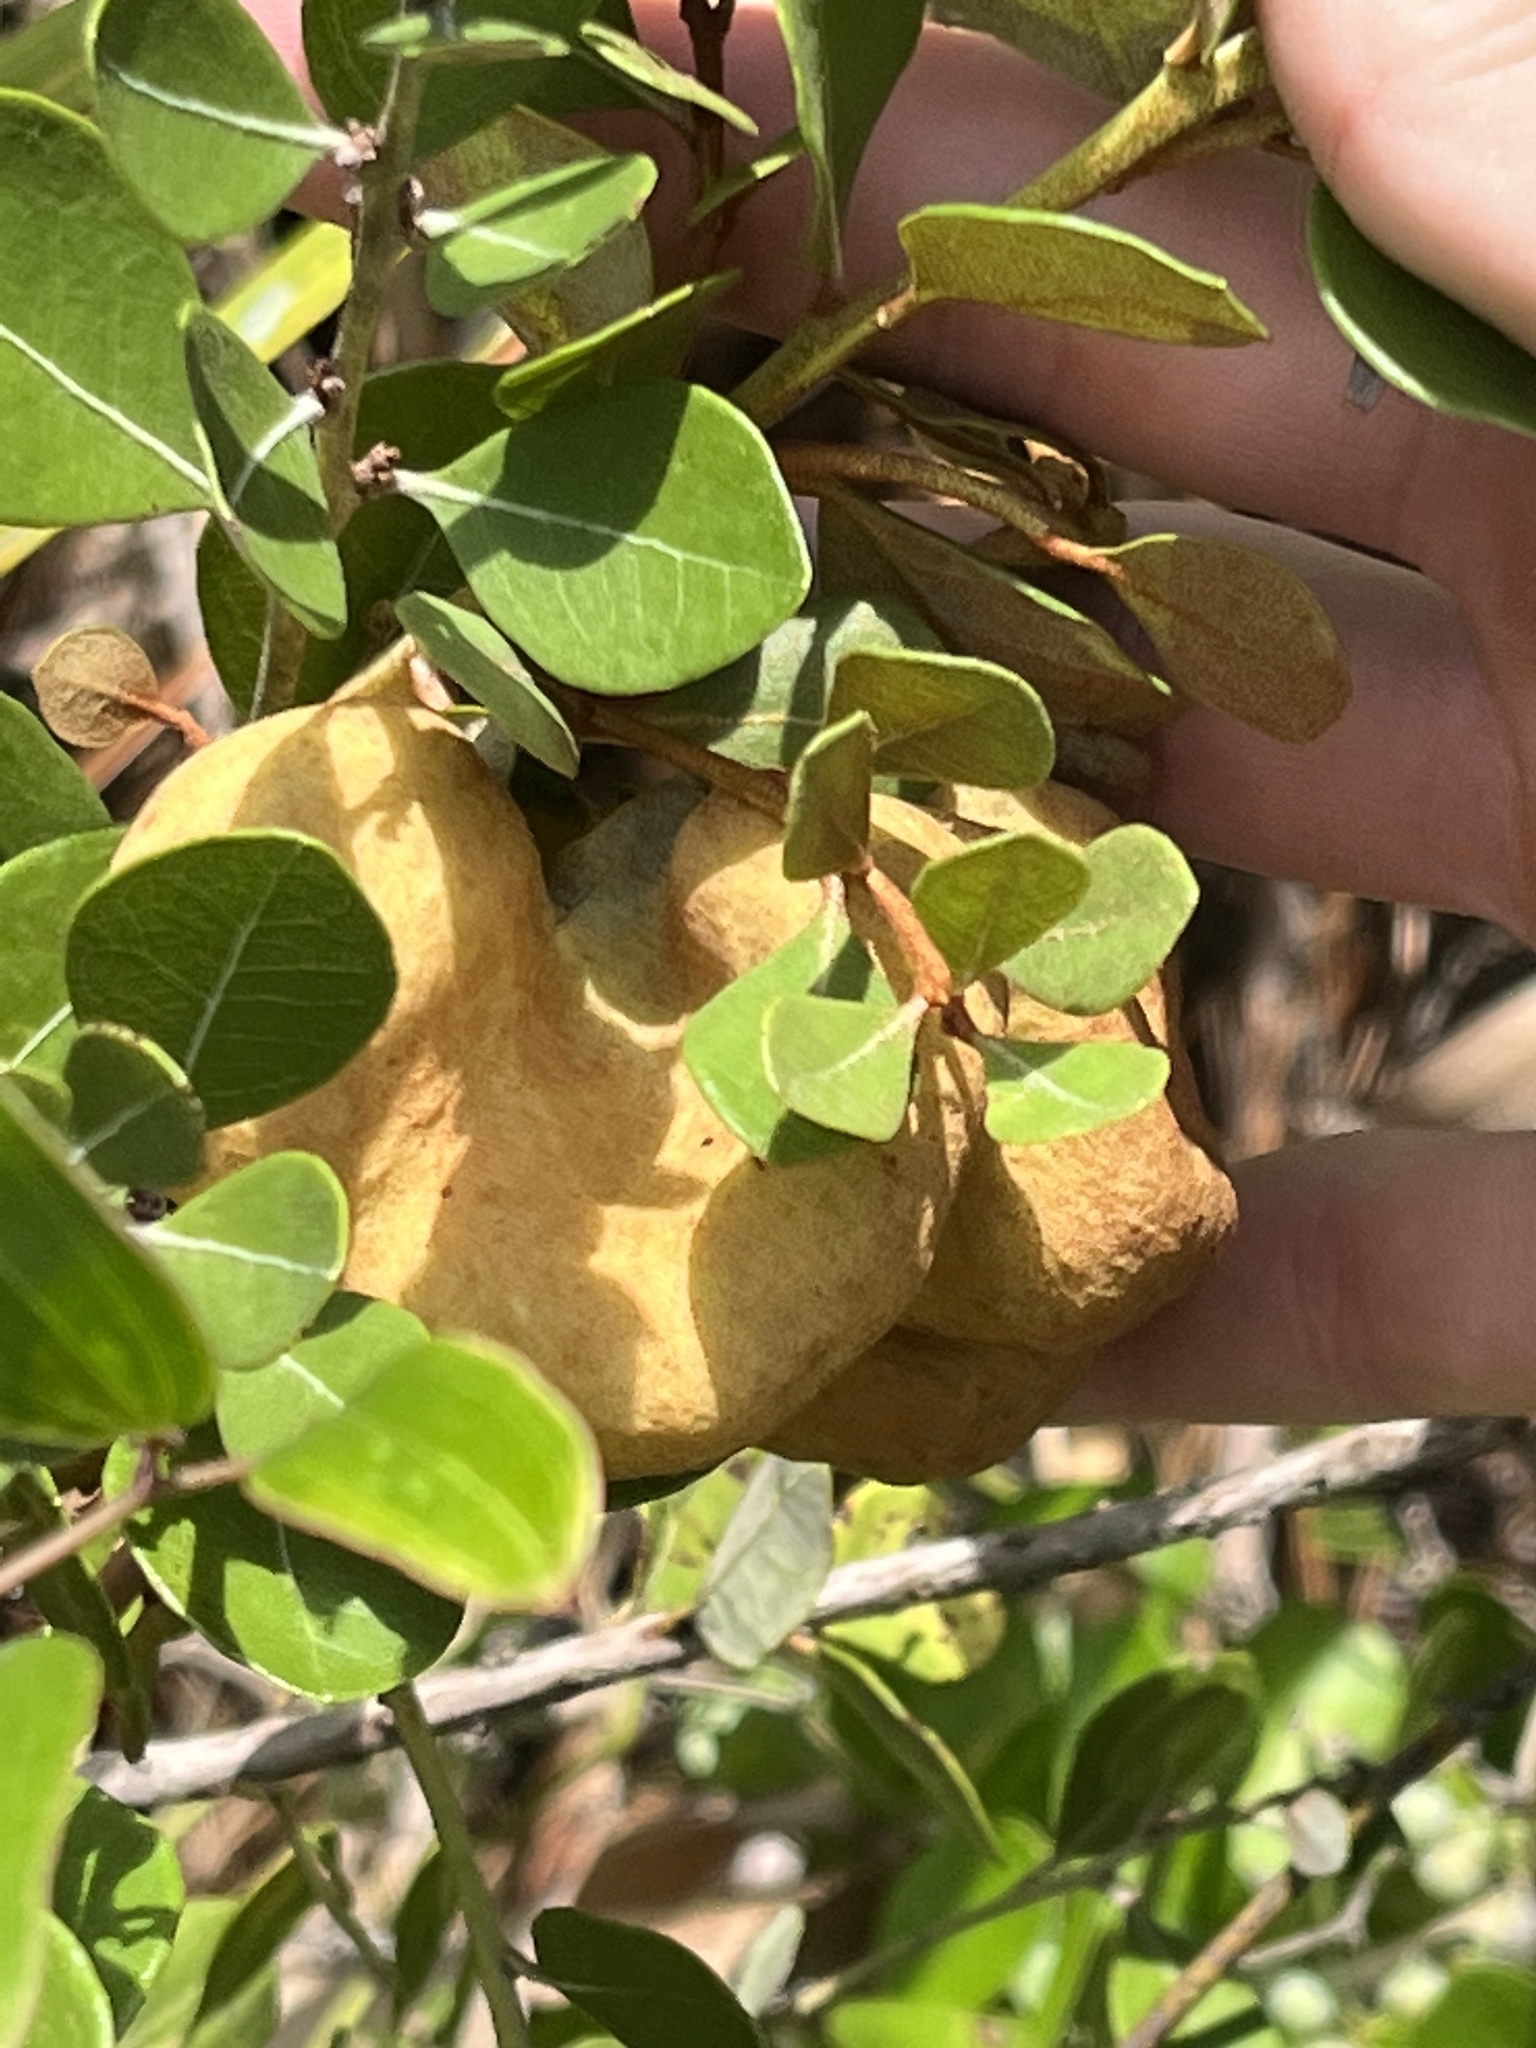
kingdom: Fungi
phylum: Basidiomycota
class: Exobasidiomycetes
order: Exobasidiales
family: Exobasidiaceae
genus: Exobasidium
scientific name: Exobasidium ferrugineae
